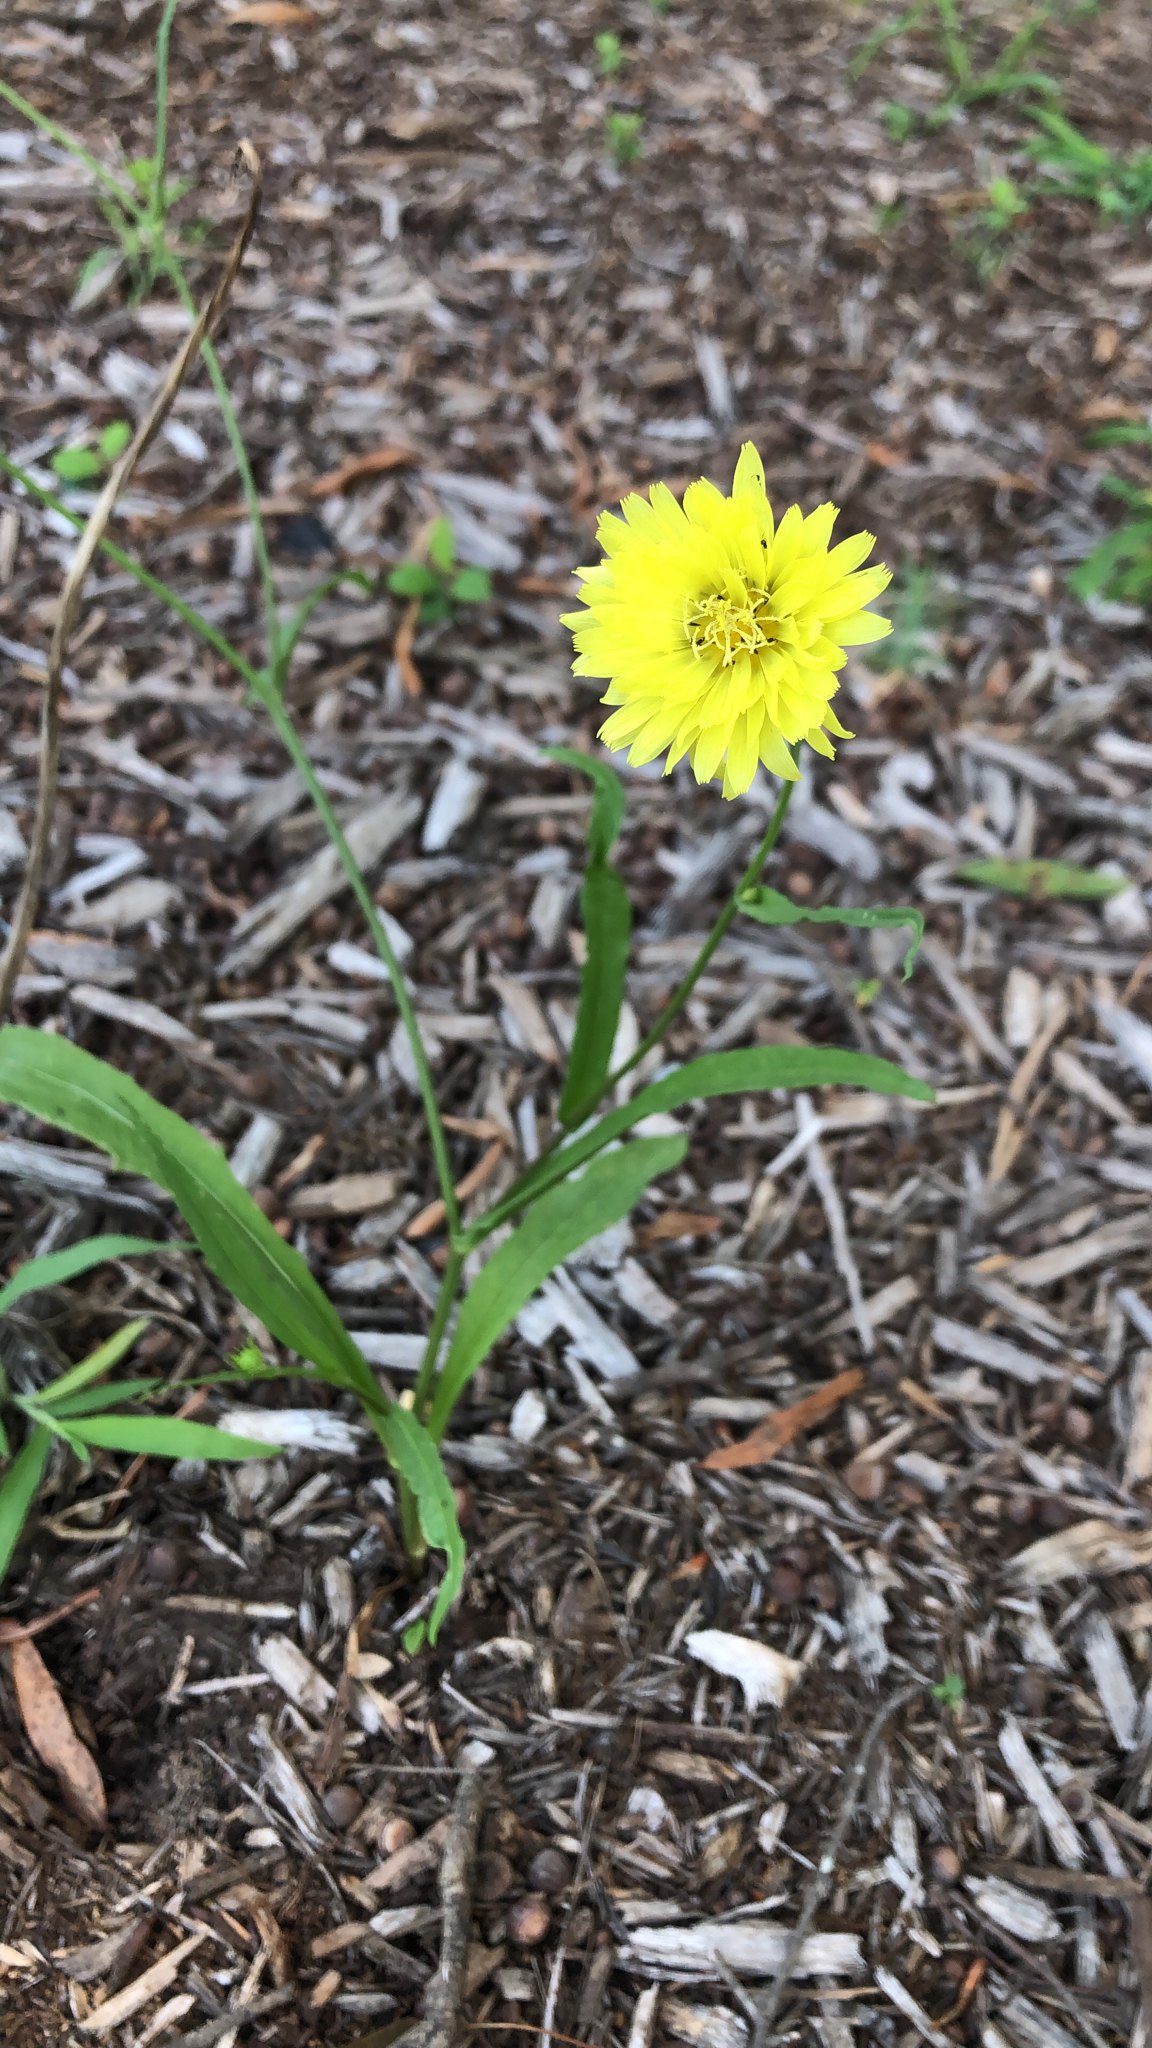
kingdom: Plantae
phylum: Tracheophyta
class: Magnoliopsida
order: Asterales
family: Asteraceae
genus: Pyrrhopappus
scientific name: Pyrrhopappus carolinianus
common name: Carolina desert-chicory
